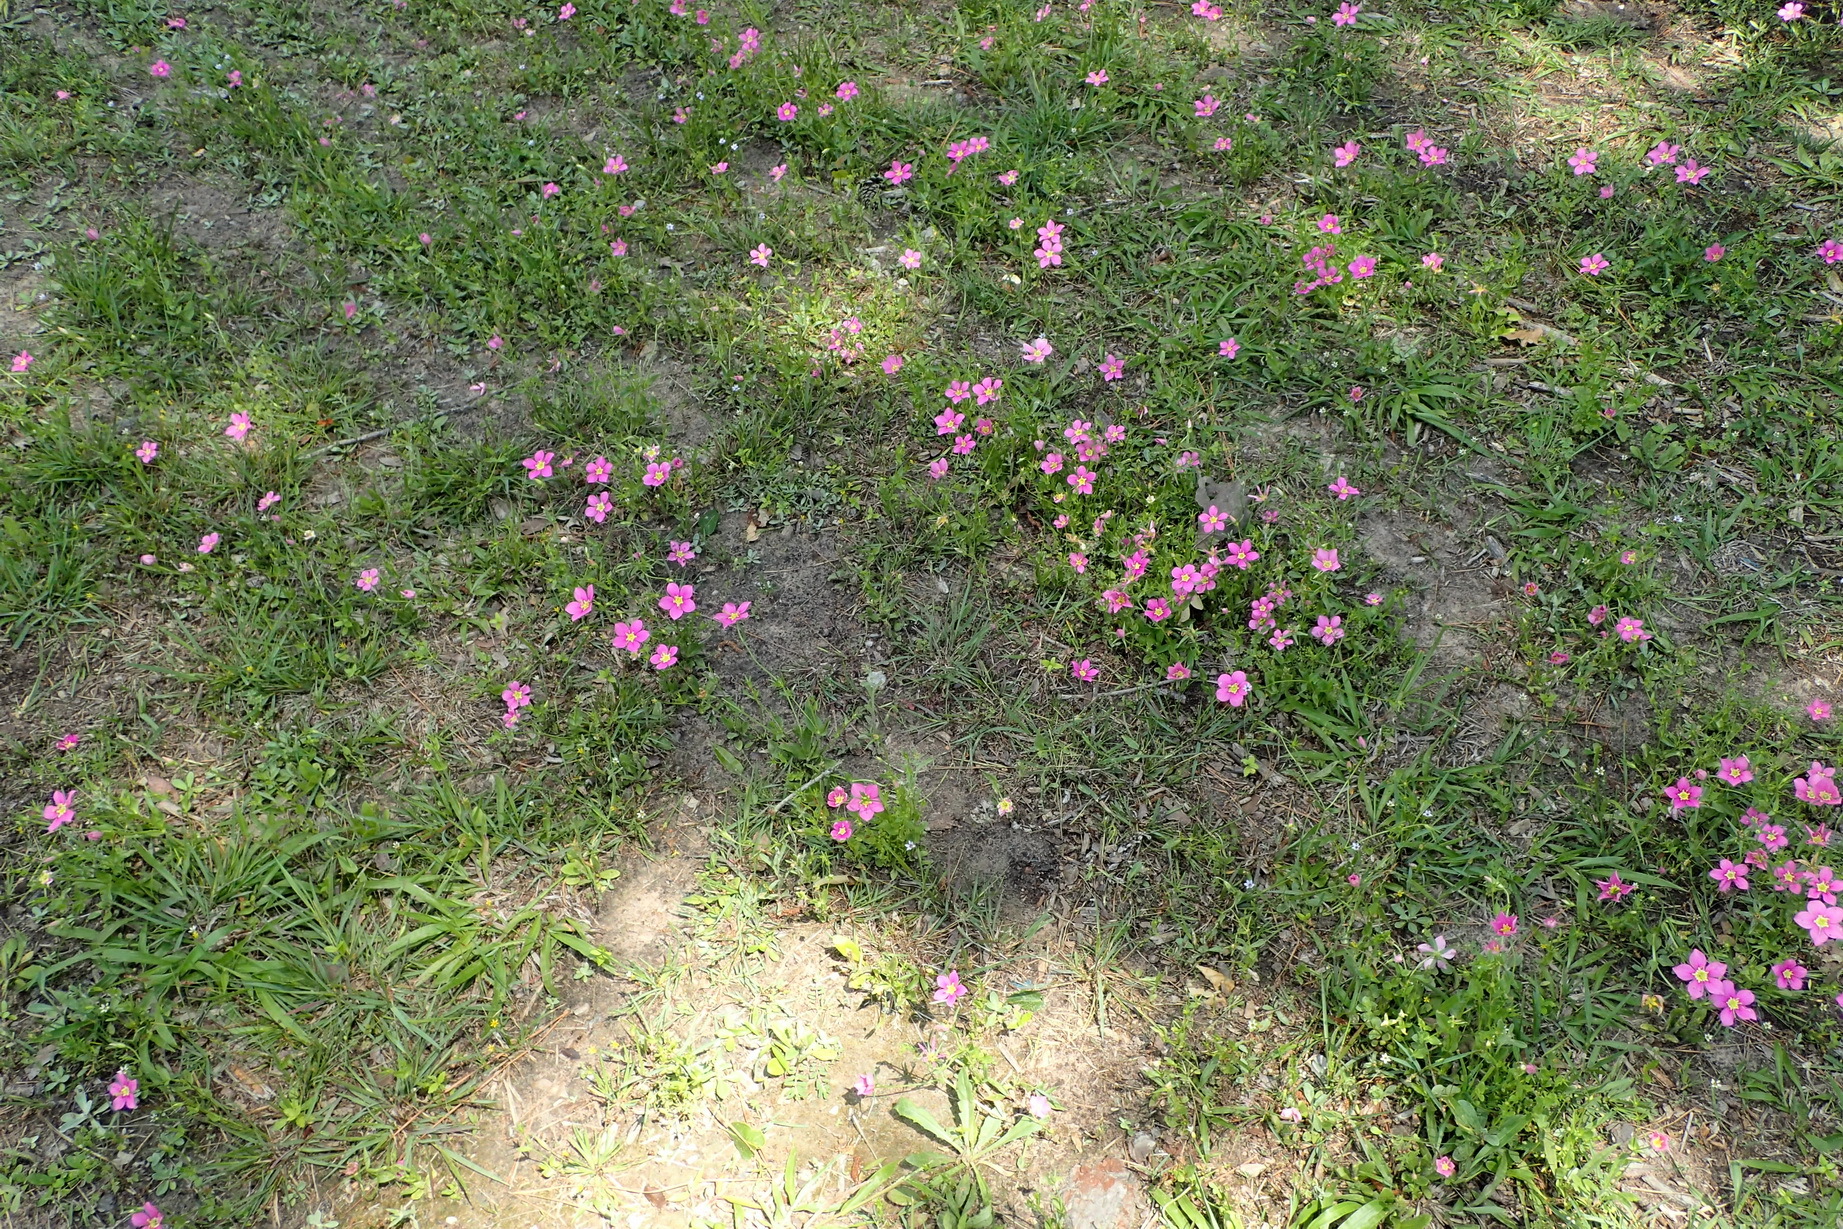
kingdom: Plantae
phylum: Tracheophyta
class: Magnoliopsida
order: Gentianales
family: Gentianaceae
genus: Sabatia
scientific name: Sabatia campestris
